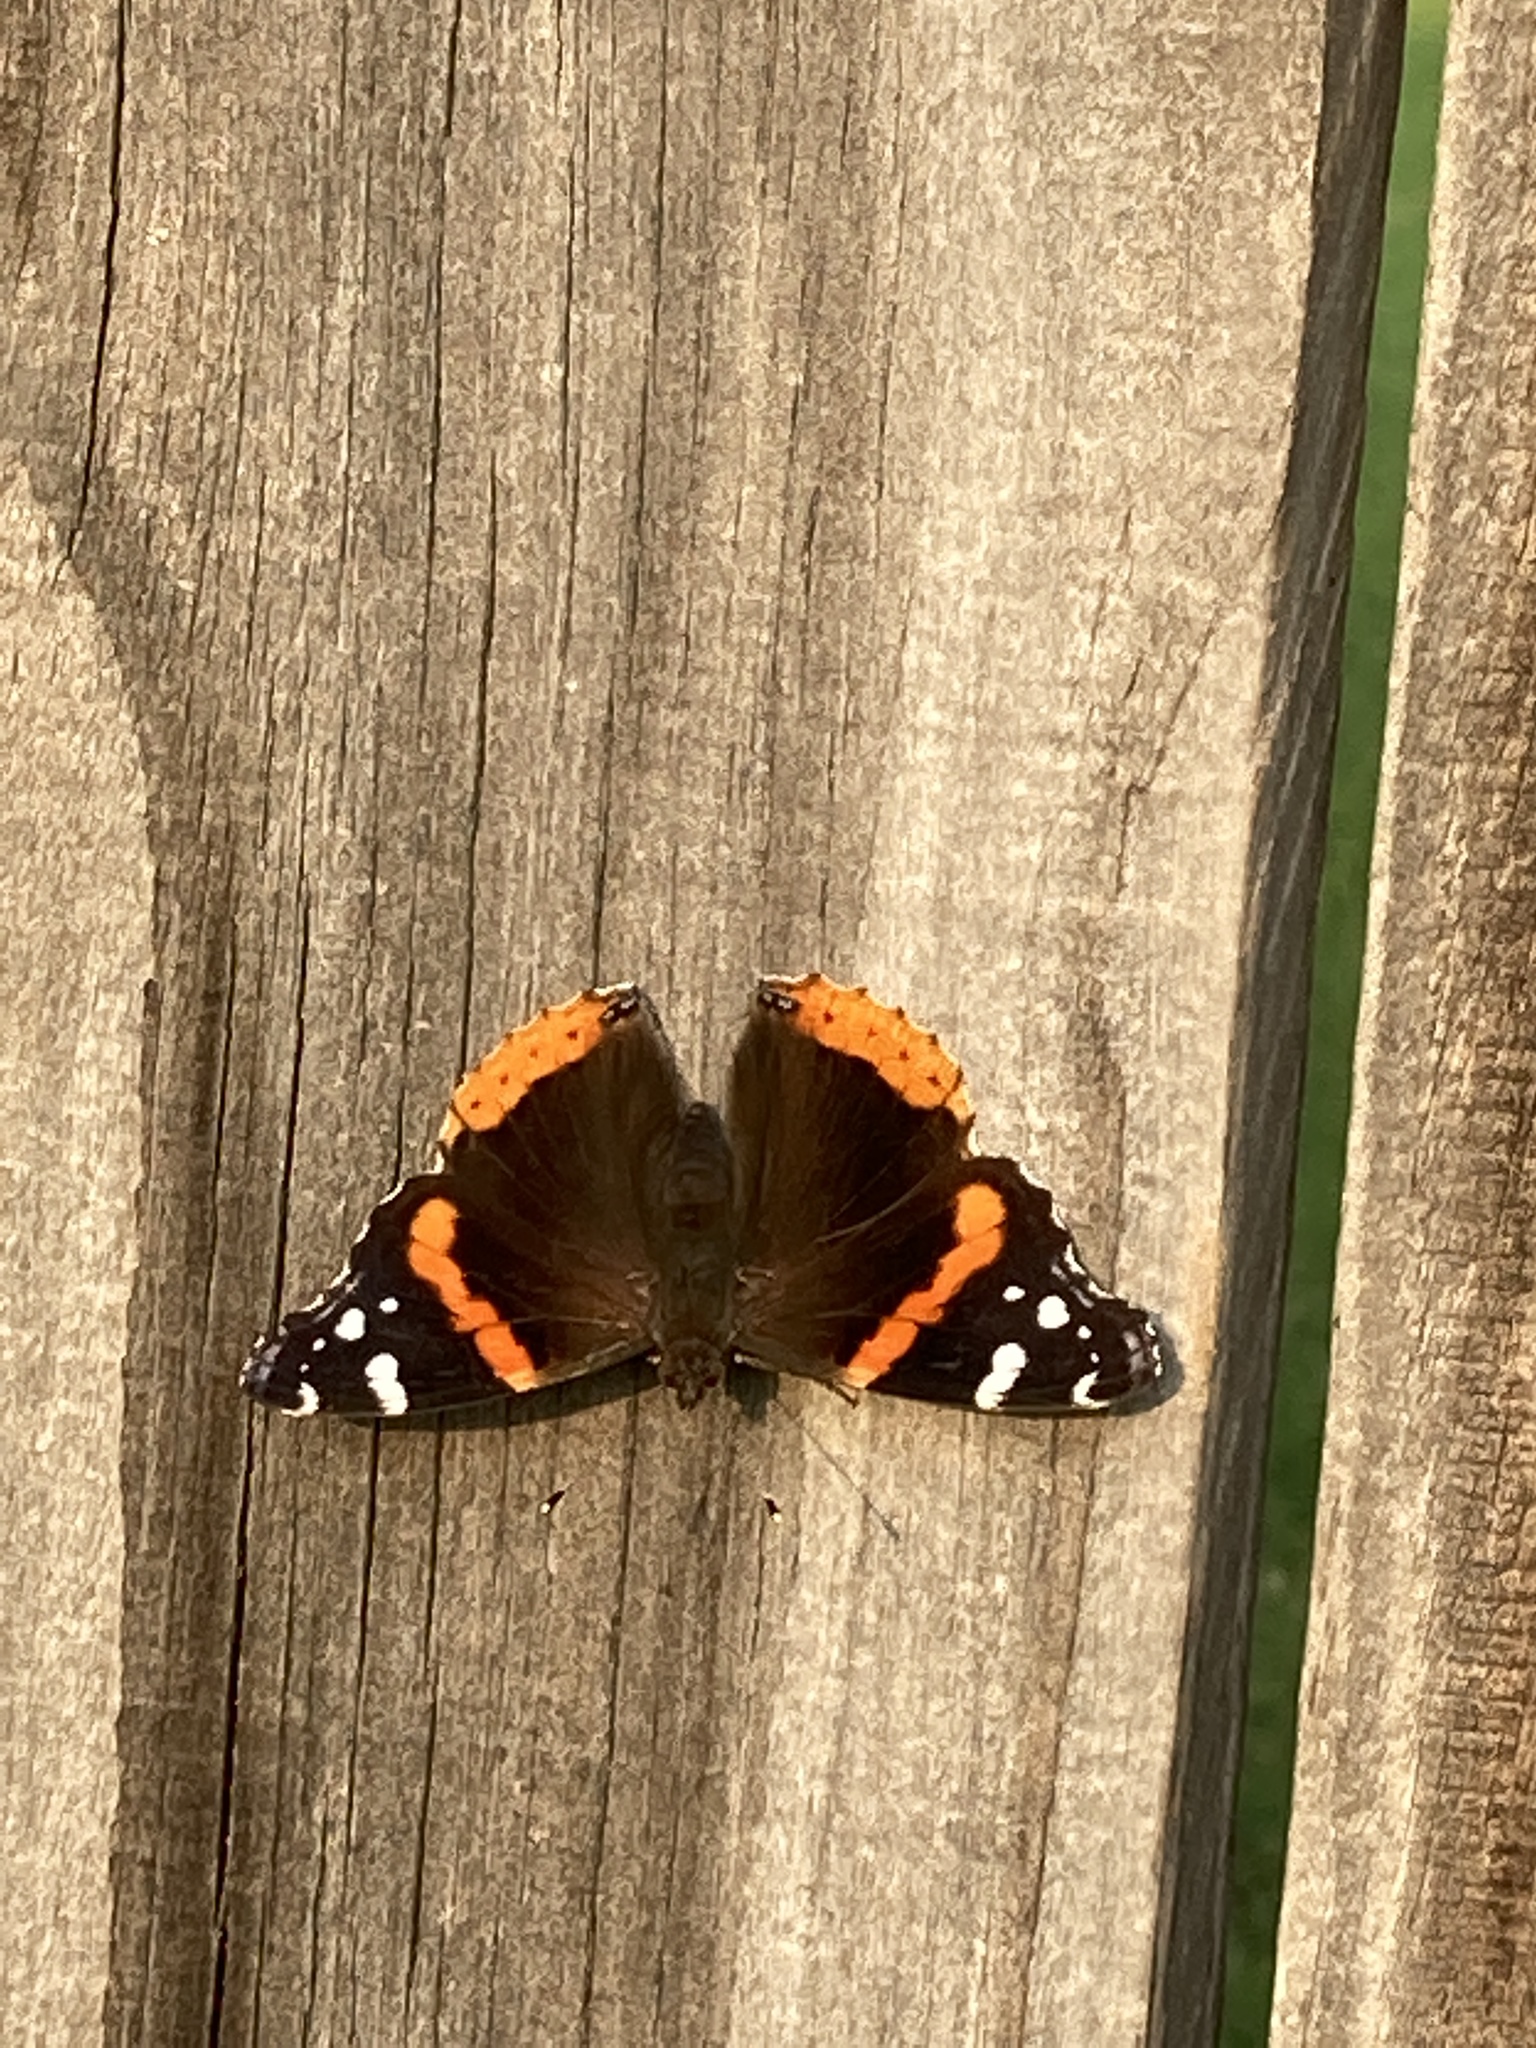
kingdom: Animalia
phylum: Arthropoda
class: Insecta
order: Lepidoptera
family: Nymphalidae
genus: Vanessa
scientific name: Vanessa atalanta
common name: Red admiral
